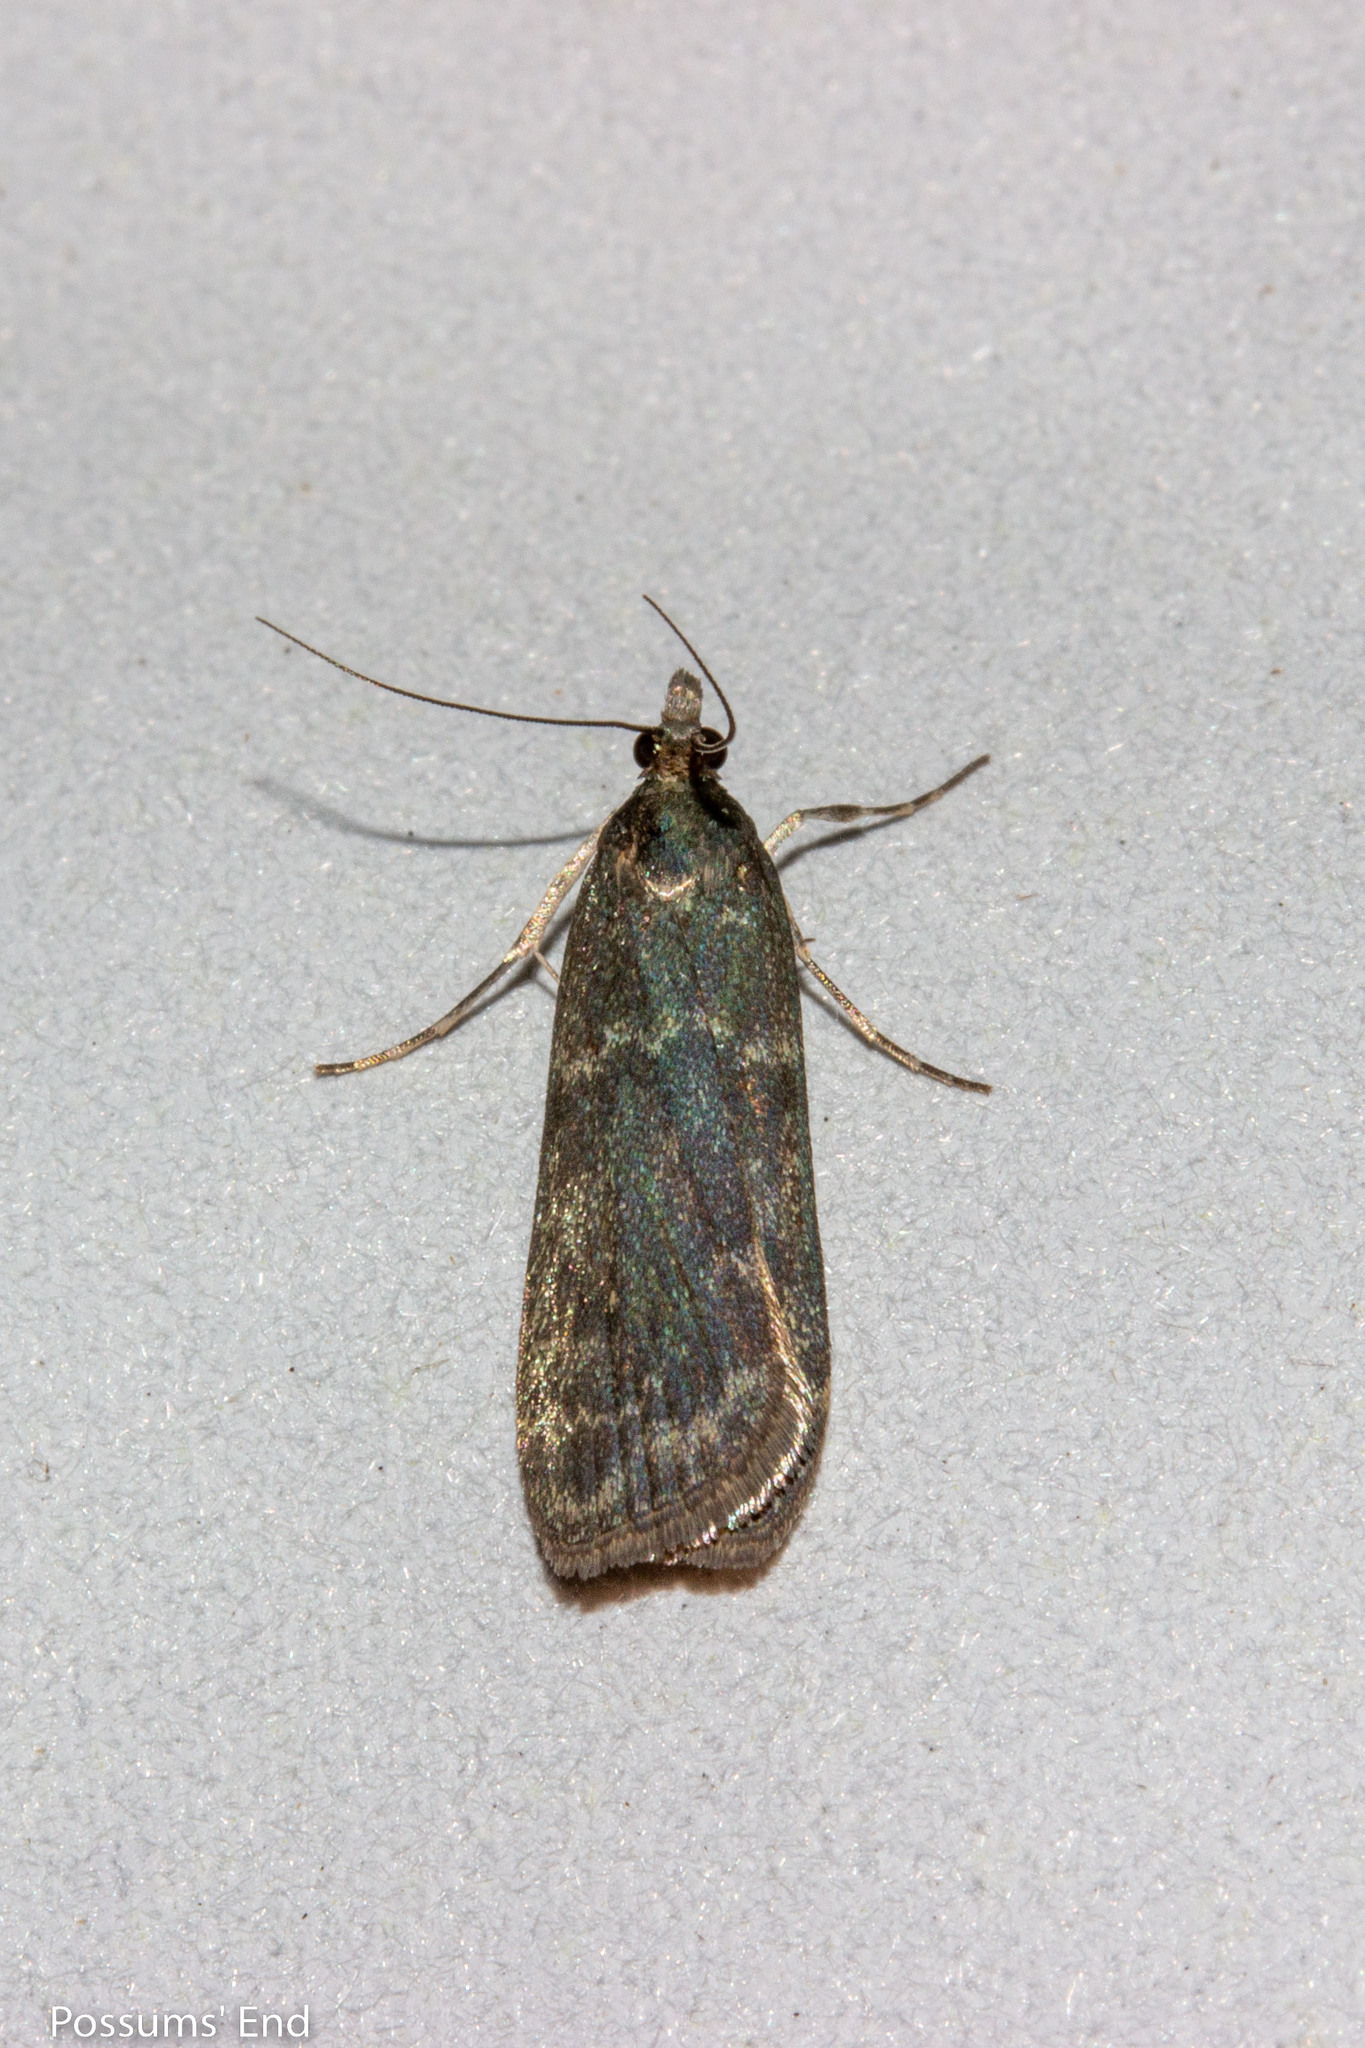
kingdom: Animalia
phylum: Arthropoda
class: Insecta
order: Lepidoptera
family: Crambidae
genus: Eudonia
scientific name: Eudonia cataxesta
